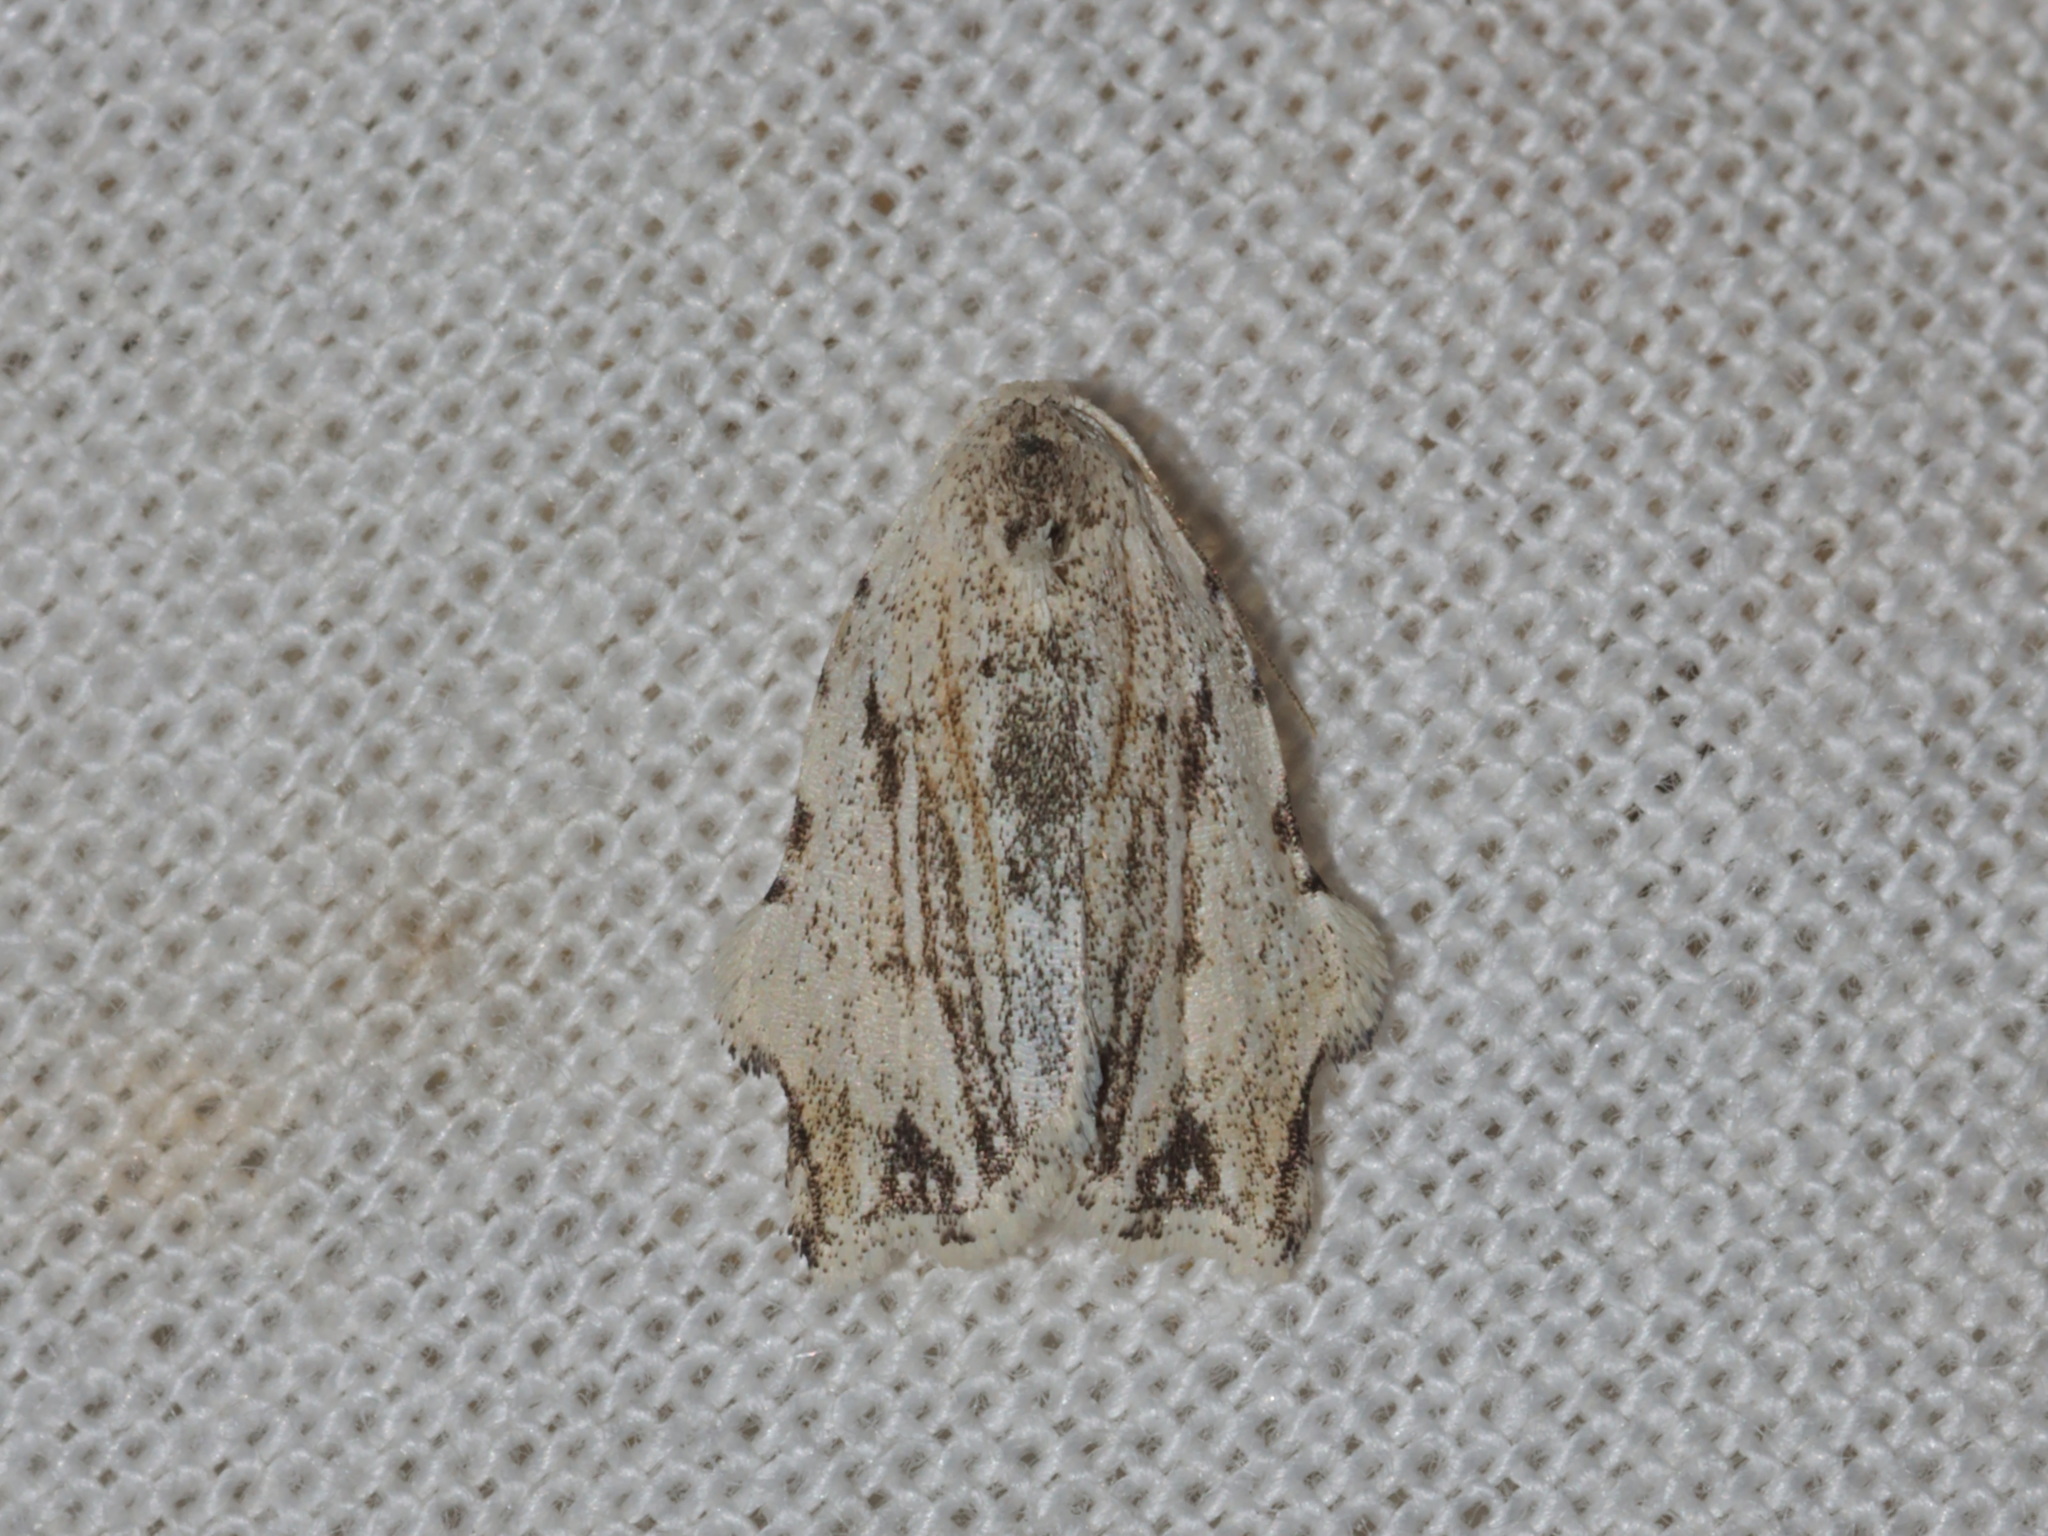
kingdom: Animalia
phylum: Arthropoda
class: Insecta
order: Lepidoptera
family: Erebidae
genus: Tortricosia
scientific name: Tortricosia classeyi
